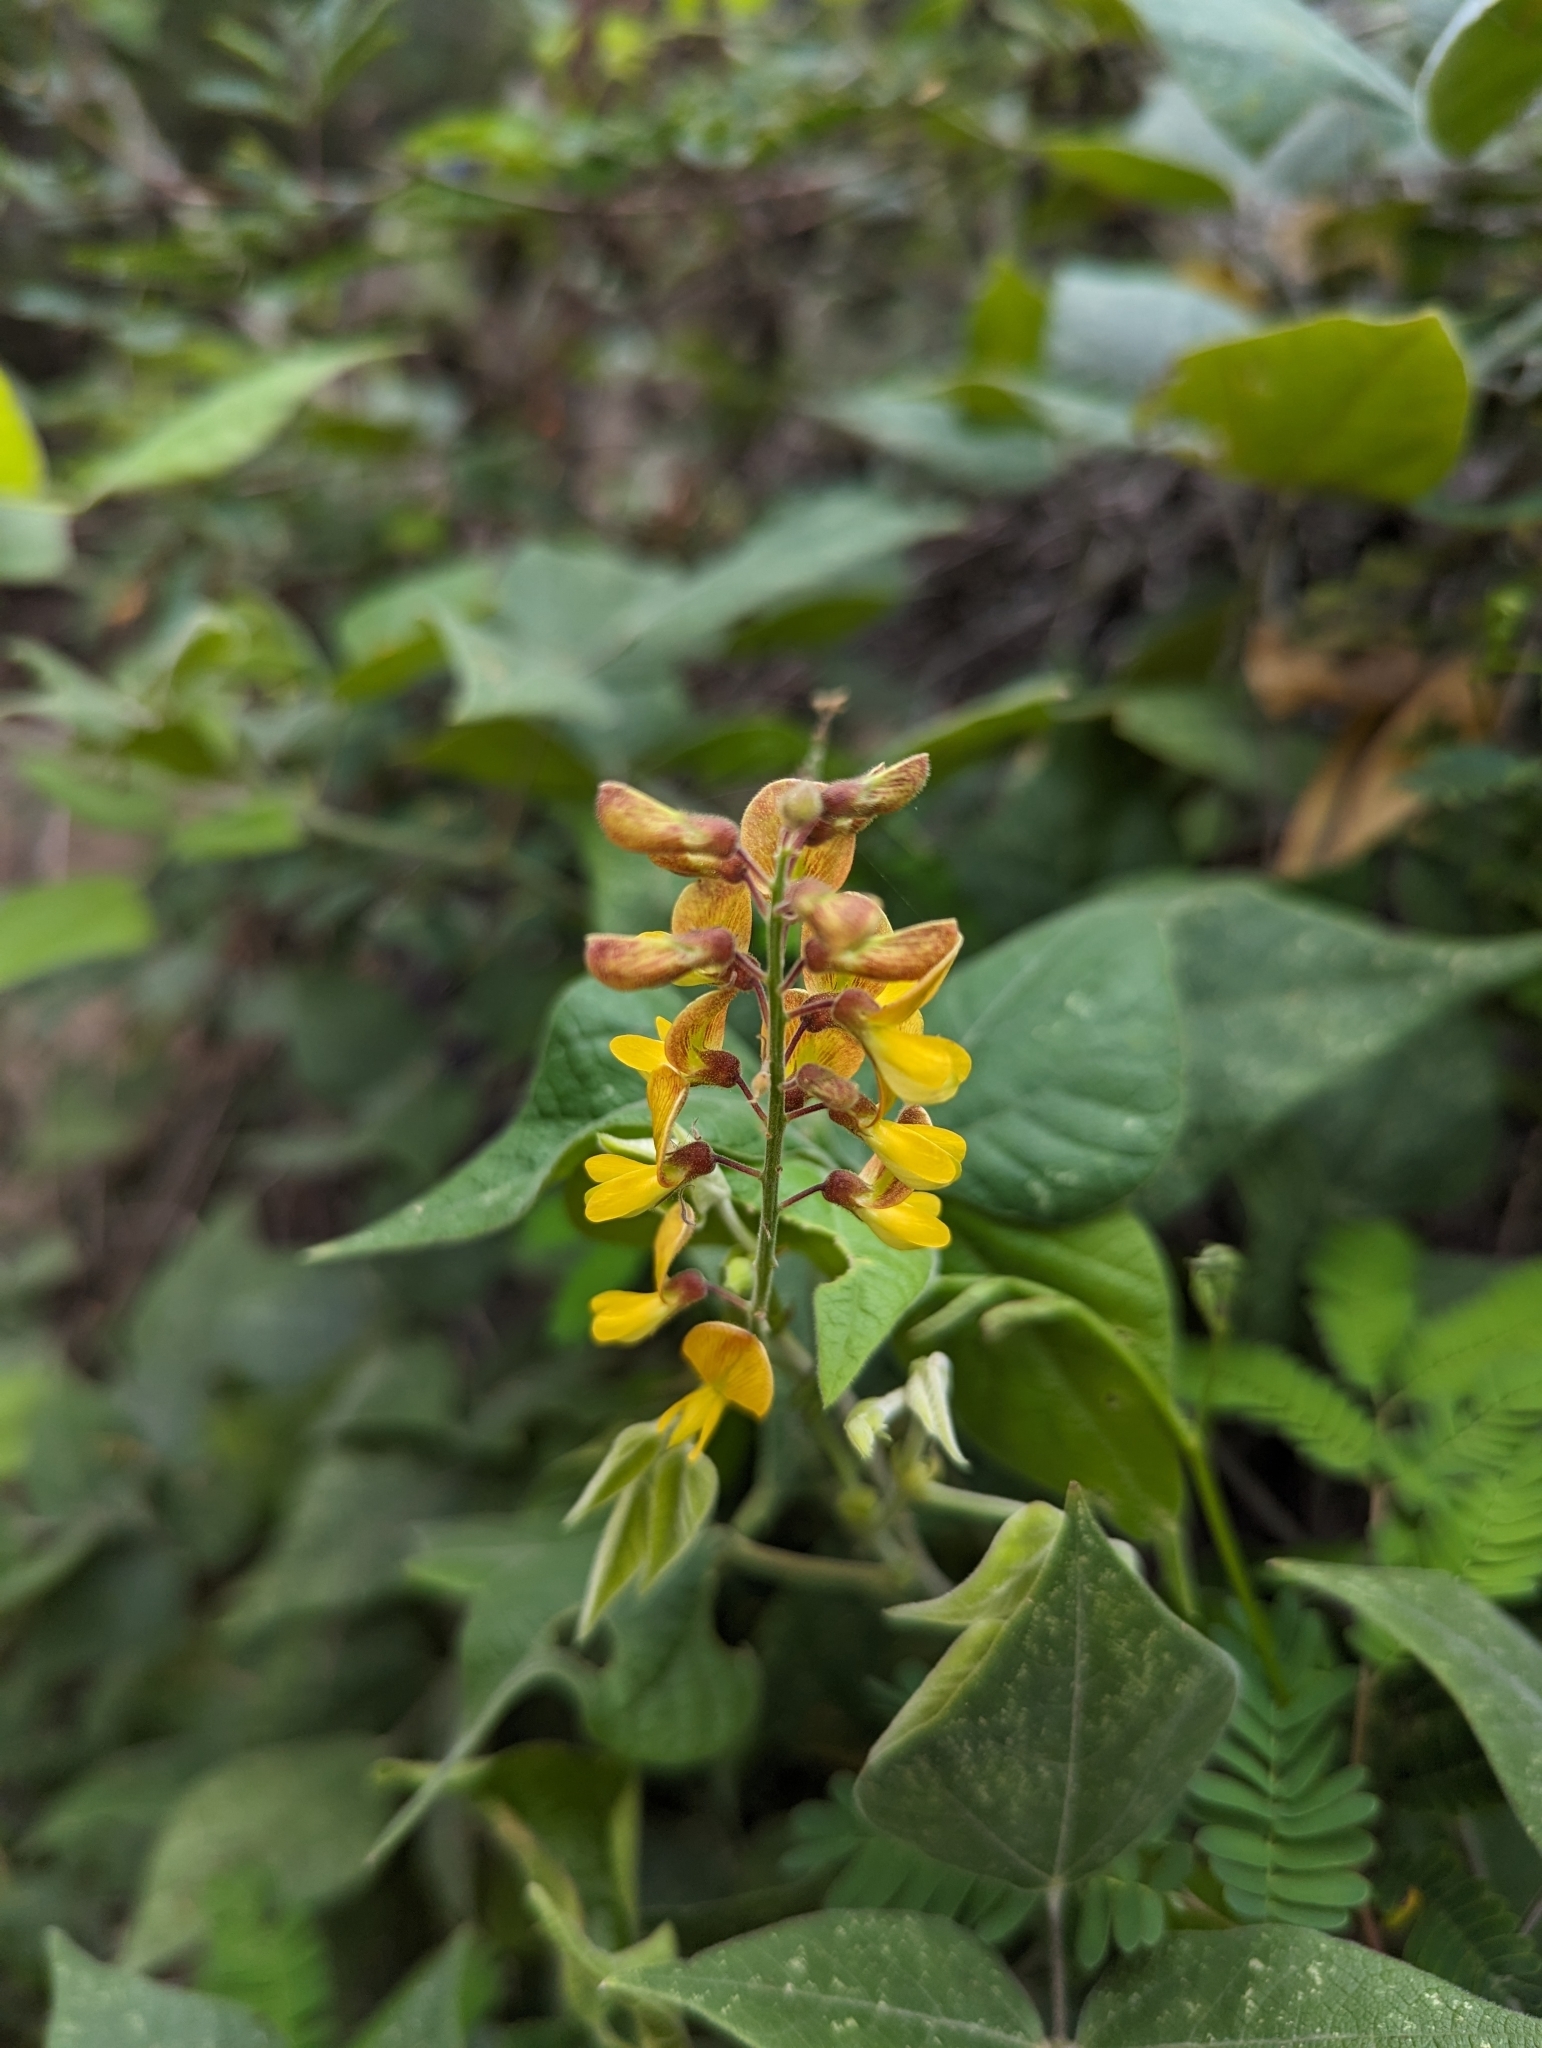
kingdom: Plantae
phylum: Tracheophyta
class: Magnoliopsida
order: Fabales
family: Fabaceae
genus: Rhynchosia
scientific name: Rhynchosia precatoria
